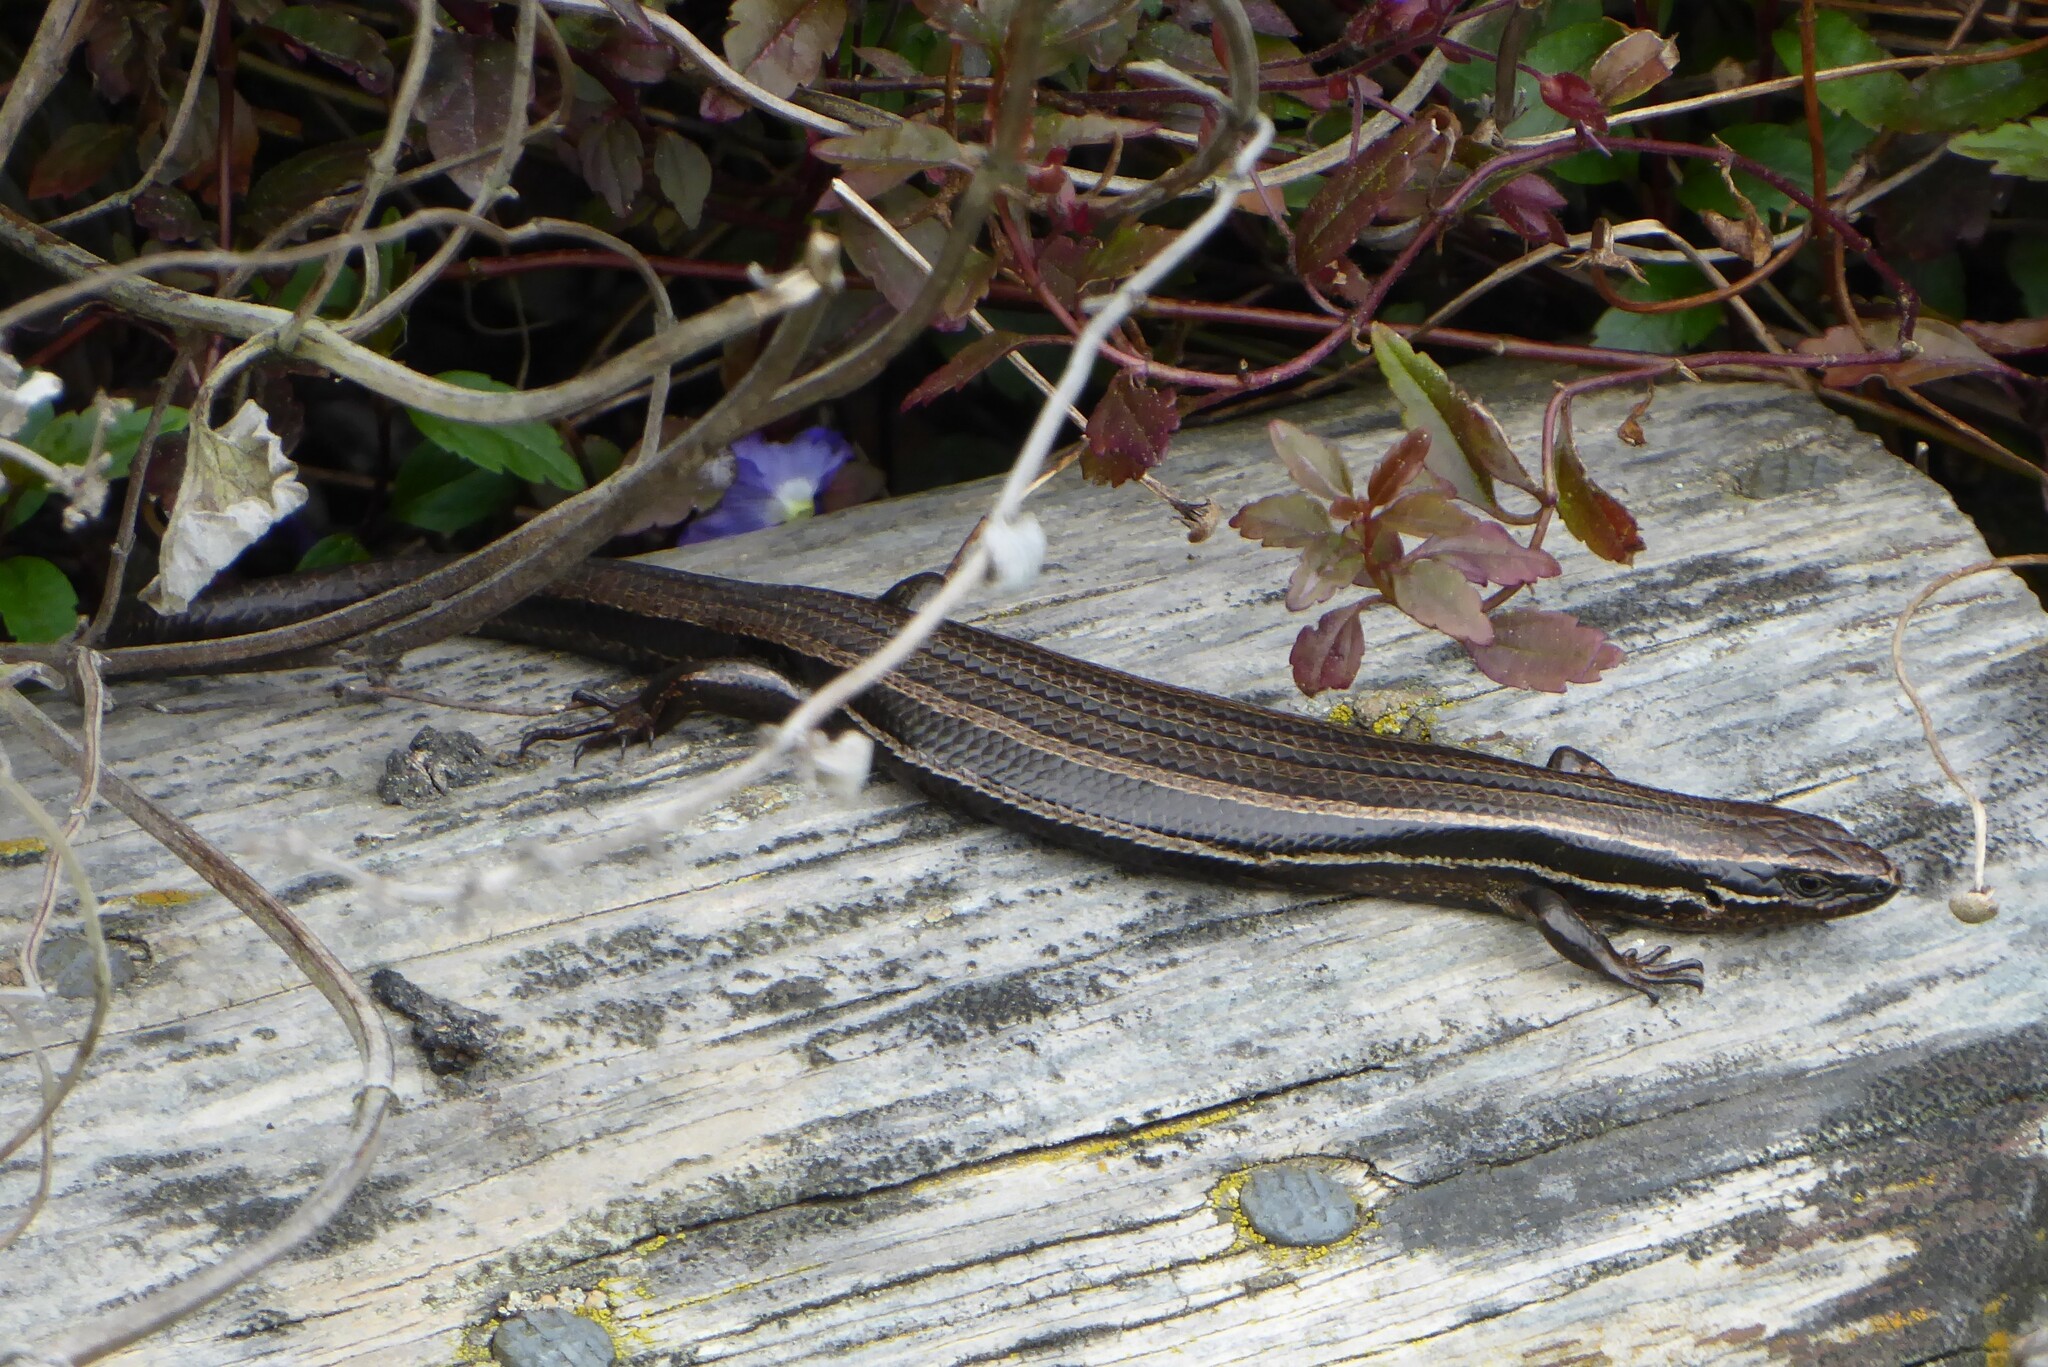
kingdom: Animalia
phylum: Chordata
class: Squamata
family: Scincidae
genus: Oligosoma
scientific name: Oligosoma polychroma
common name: Common new zealand skink
